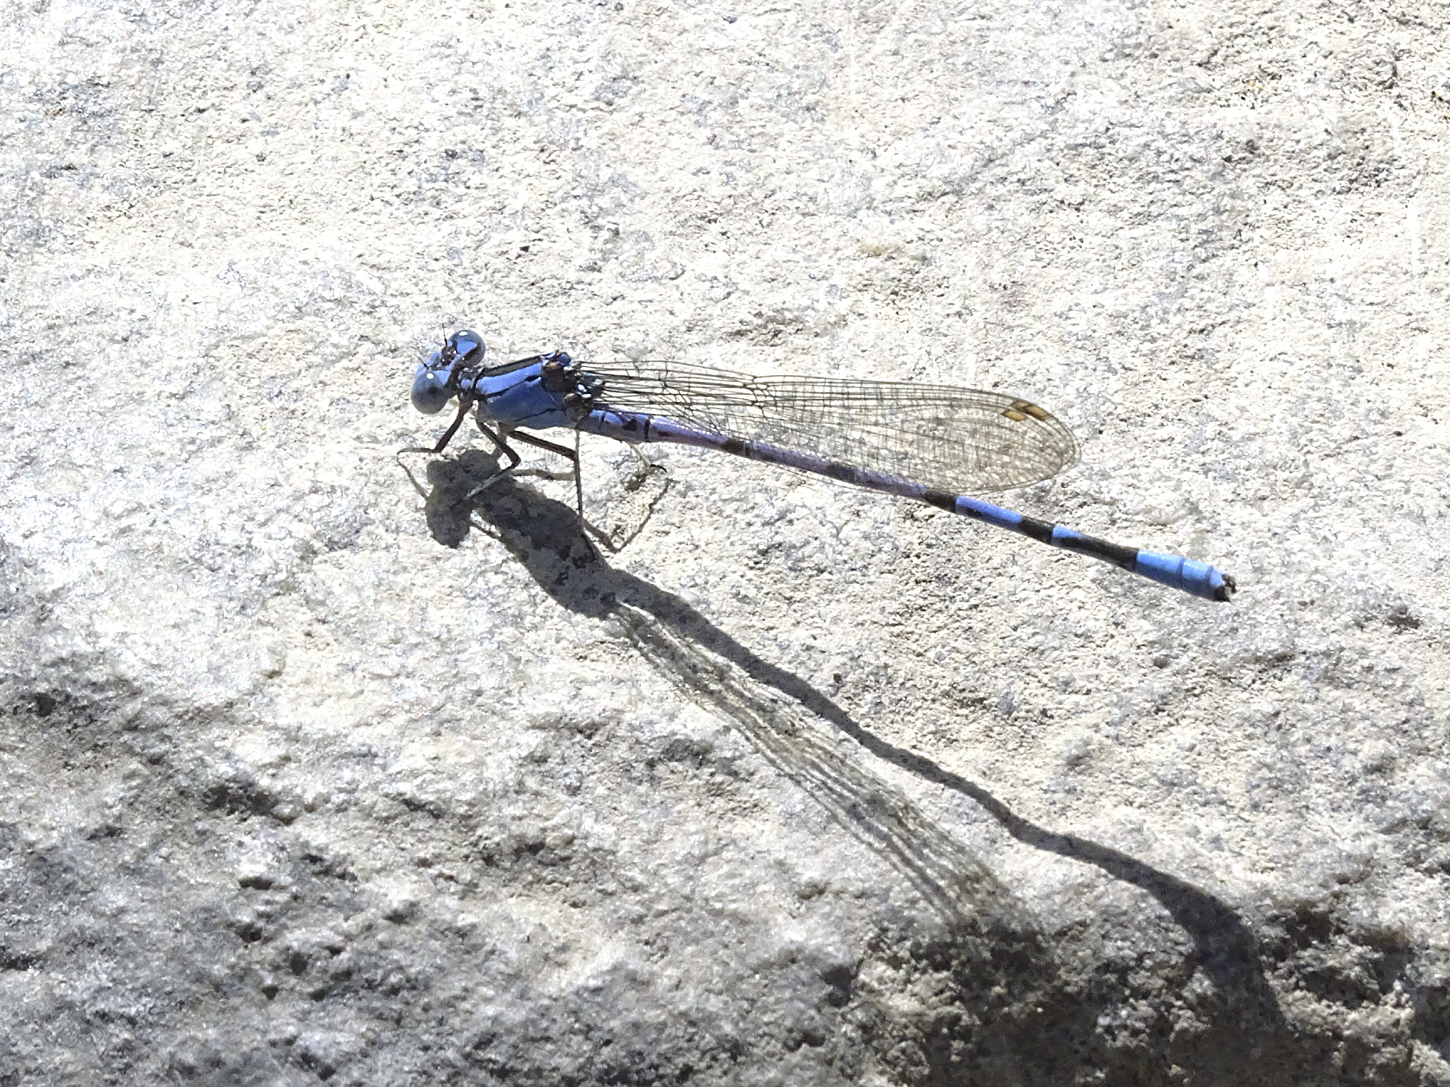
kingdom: Animalia
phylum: Arthropoda
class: Insecta
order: Odonata
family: Coenagrionidae
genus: Argia
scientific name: Argia vivida
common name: Vivid dancer
